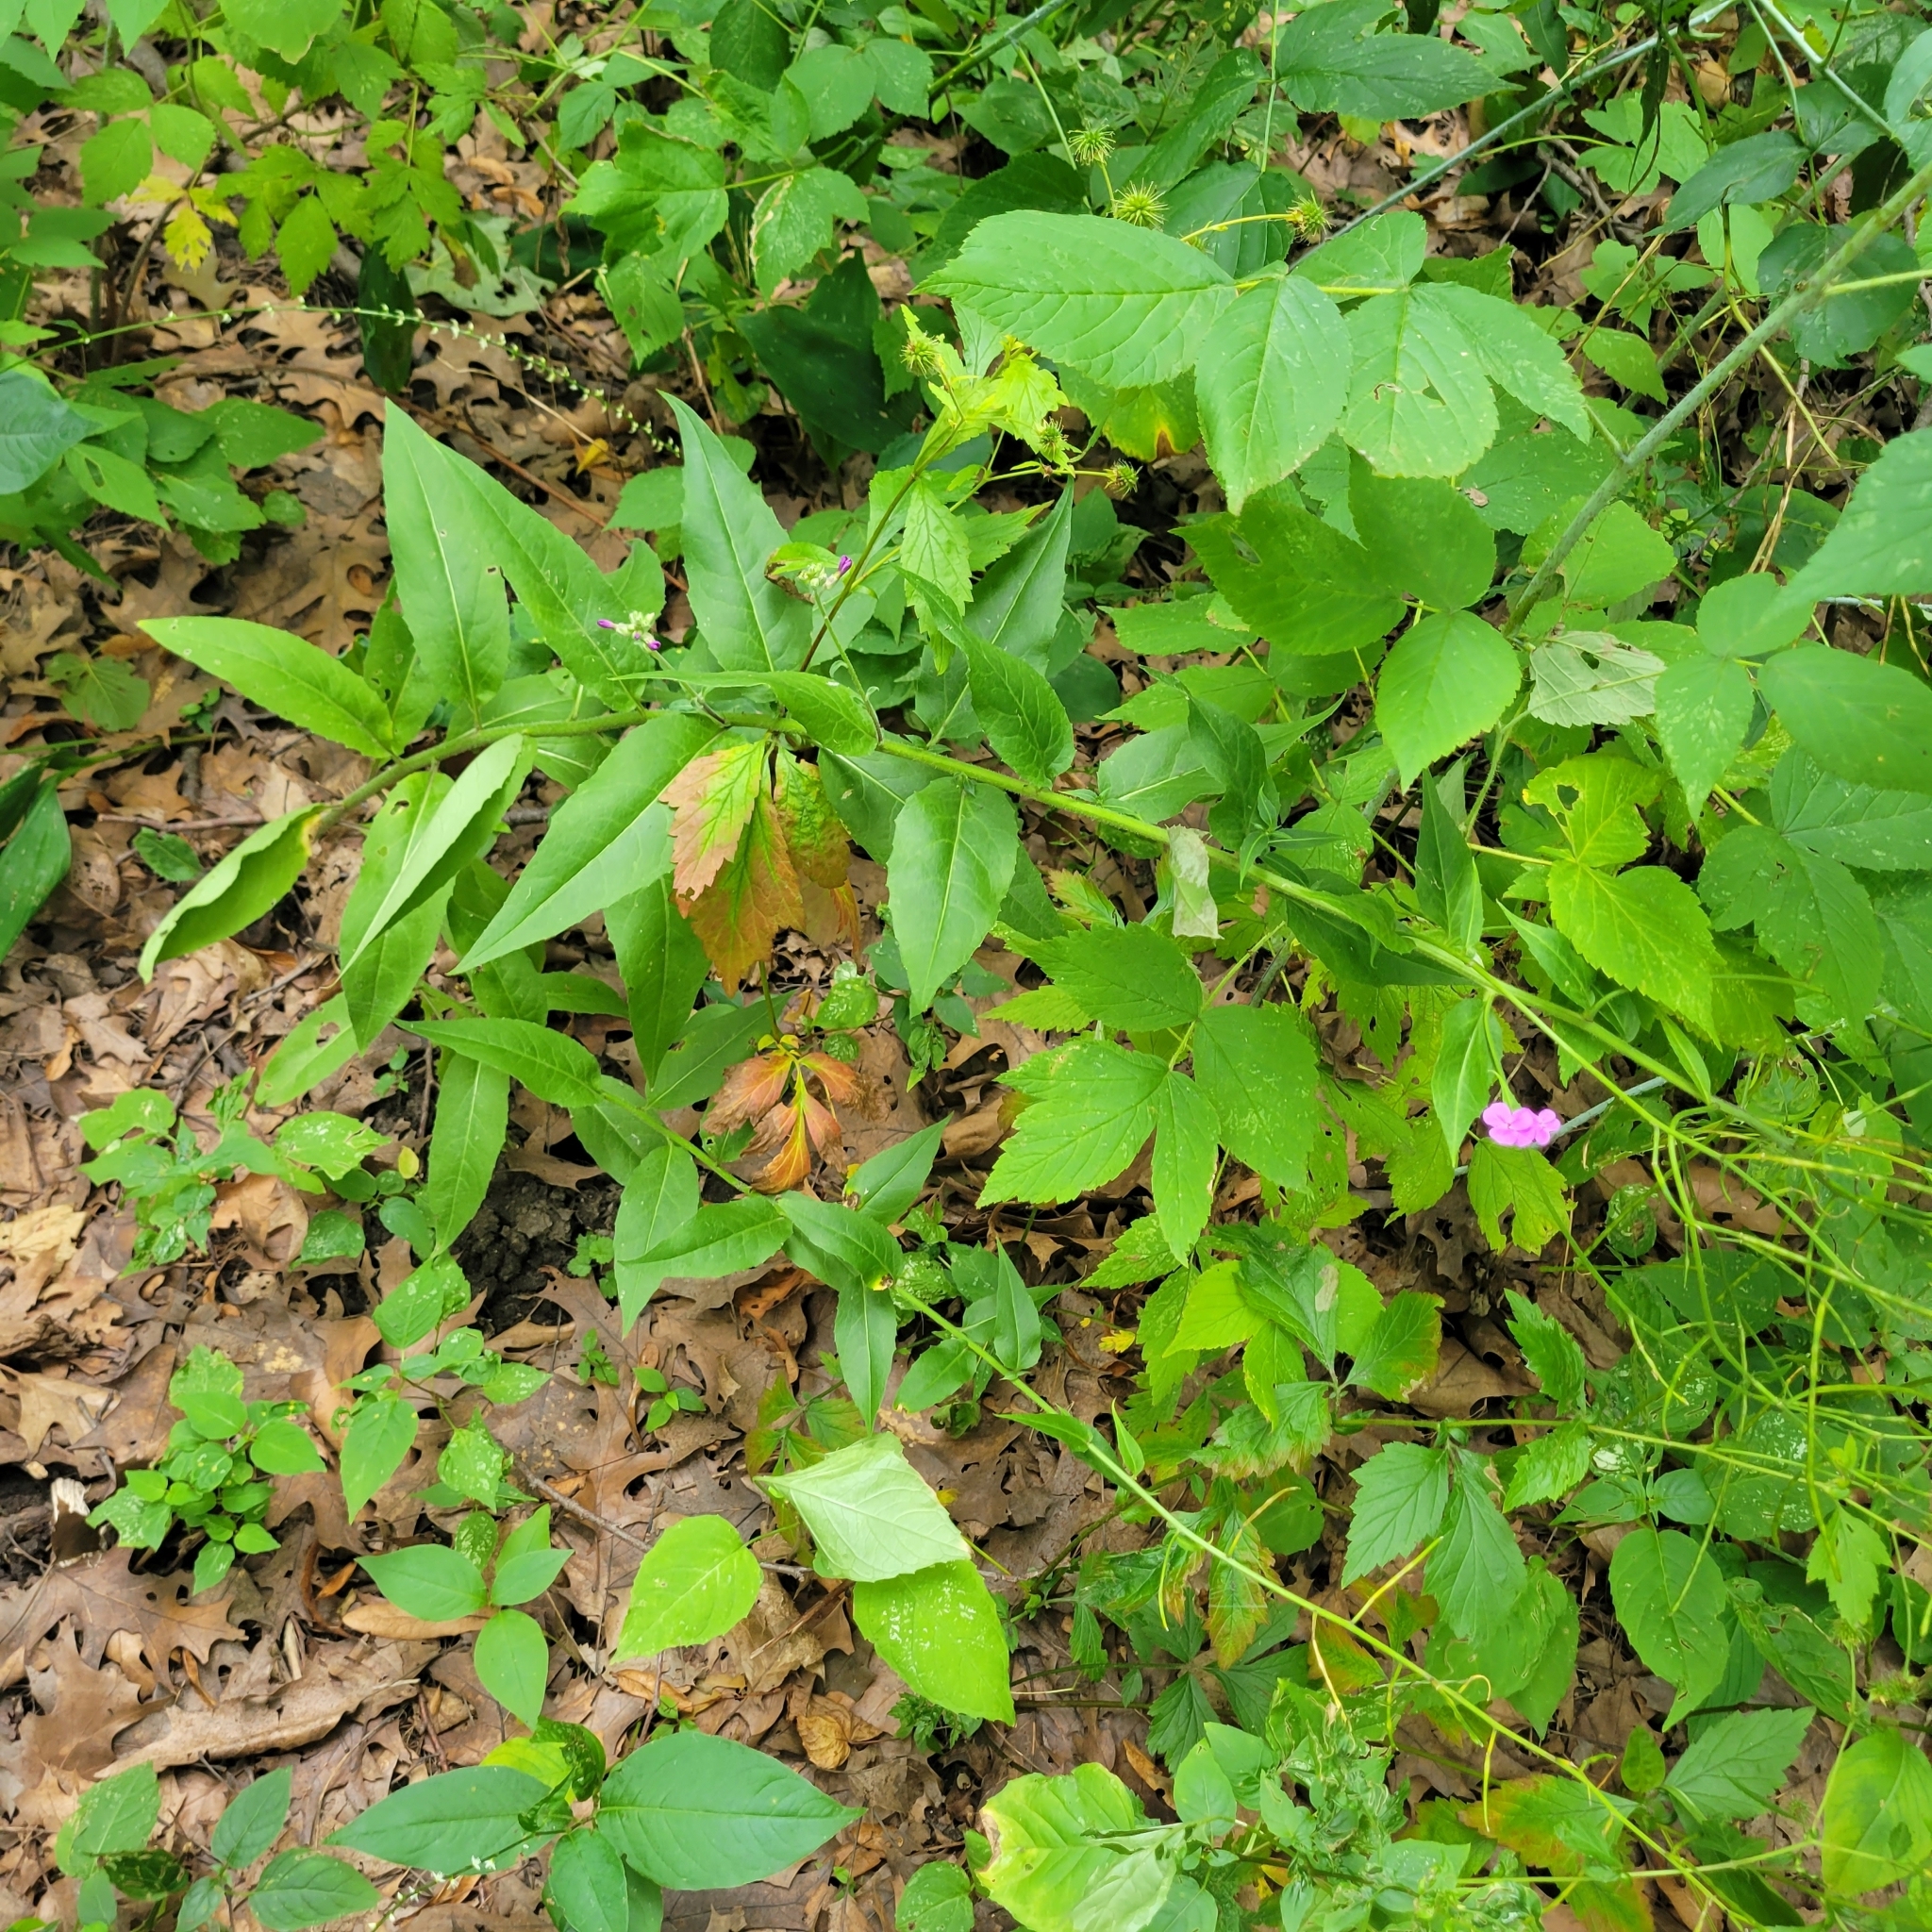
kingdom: Plantae
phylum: Tracheophyta
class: Magnoliopsida
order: Brassicales
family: Brassicaceae
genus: Hesperis
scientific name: Hesperis matronalis
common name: Dame's-violet
